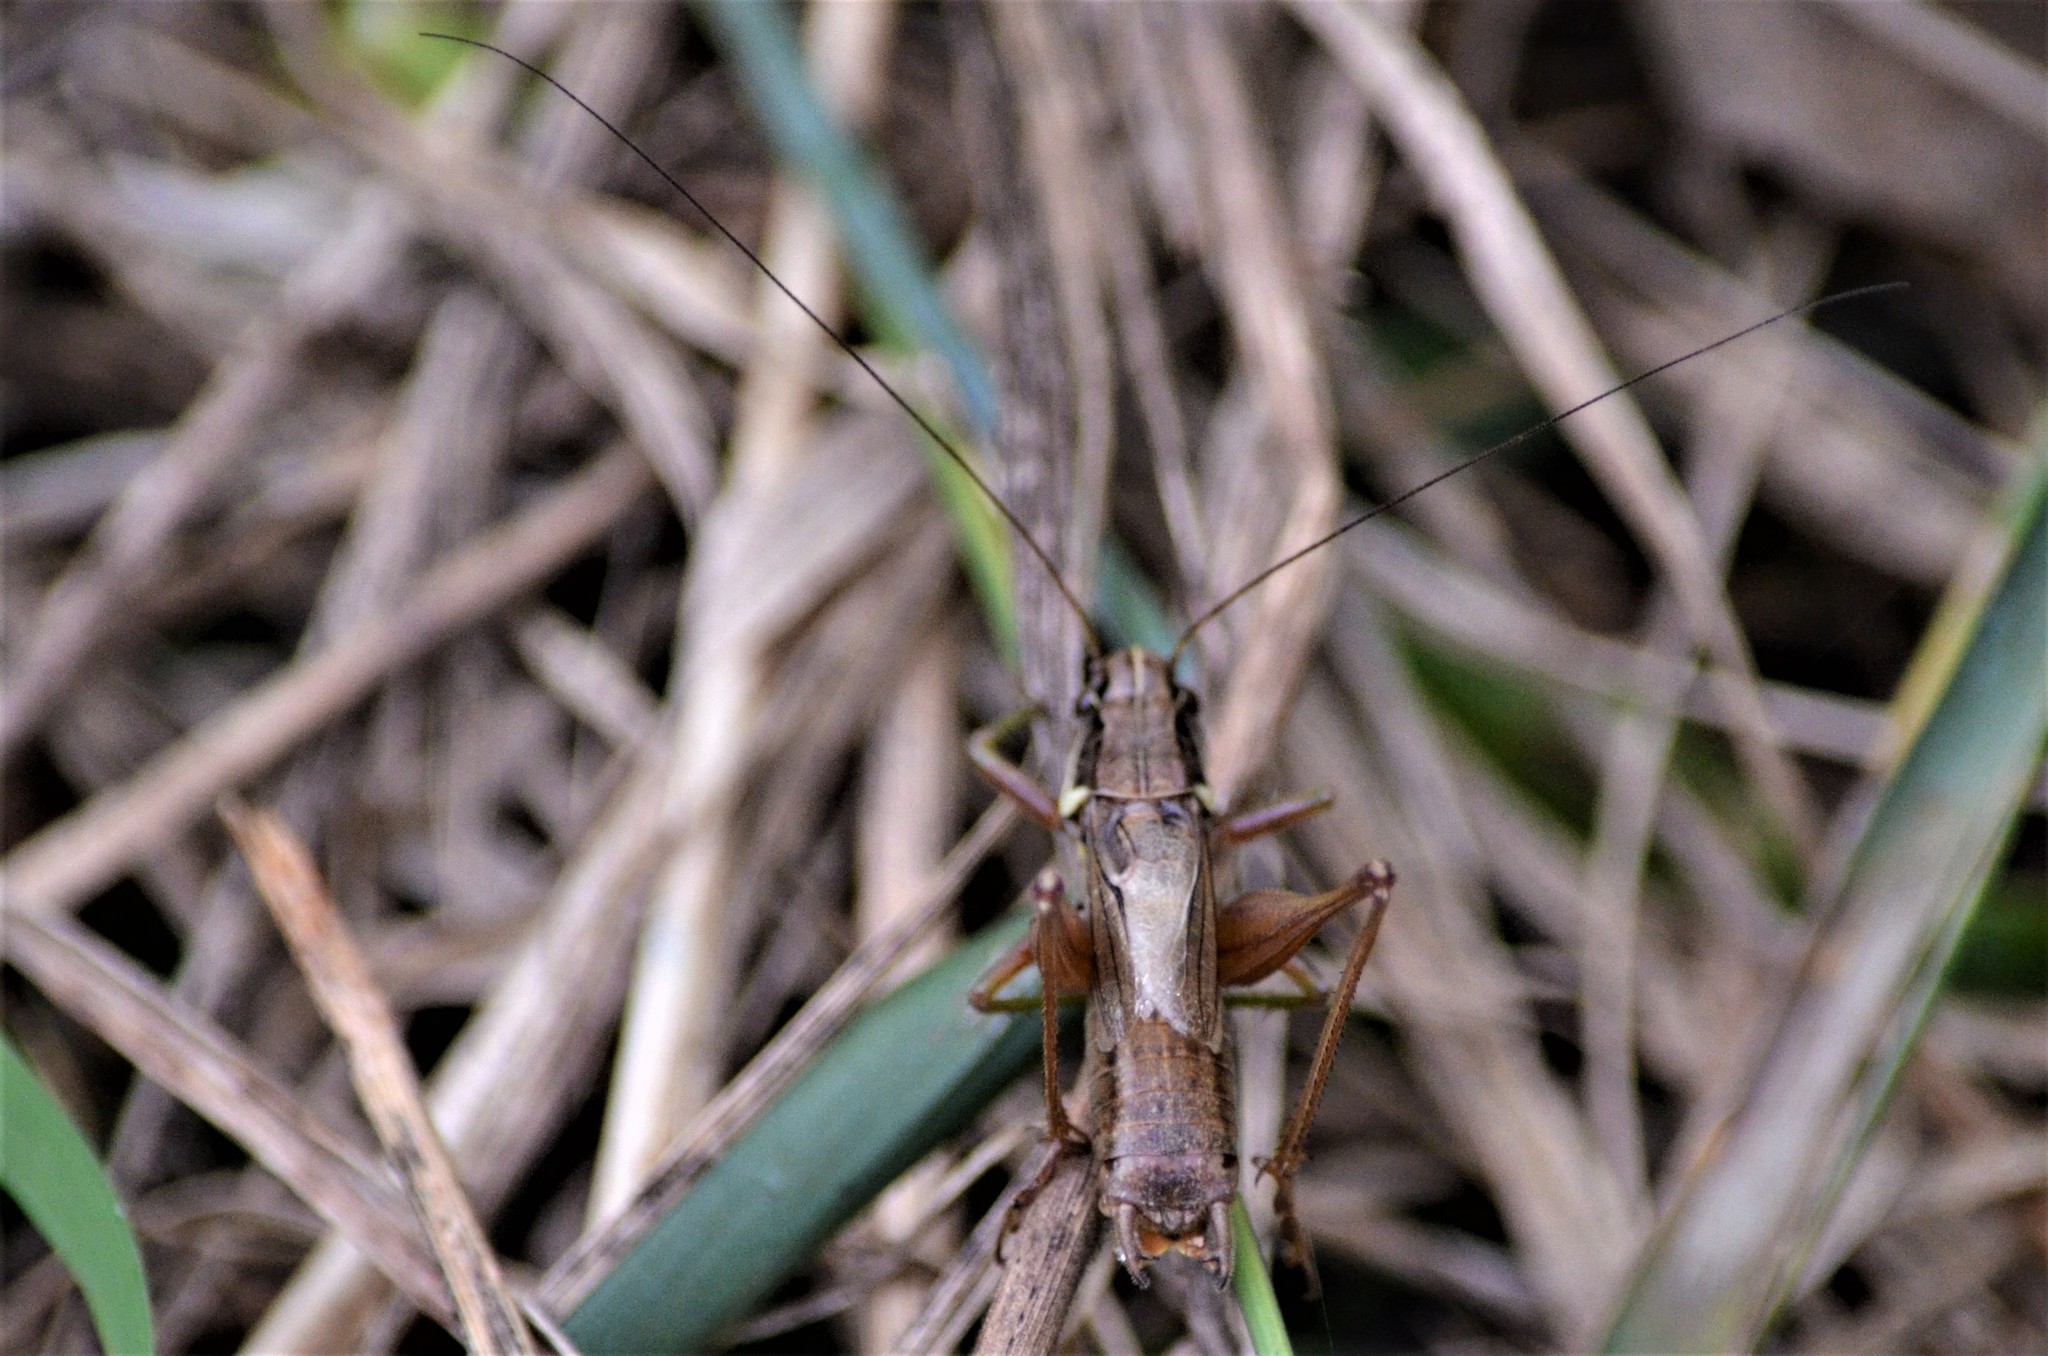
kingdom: Animalia
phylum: Arthropoda
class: Insecta
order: Orthoptera
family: Tettigoniidae
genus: Roeseliana
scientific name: Roeseliana roeselii
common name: Roesel's bush cricket
